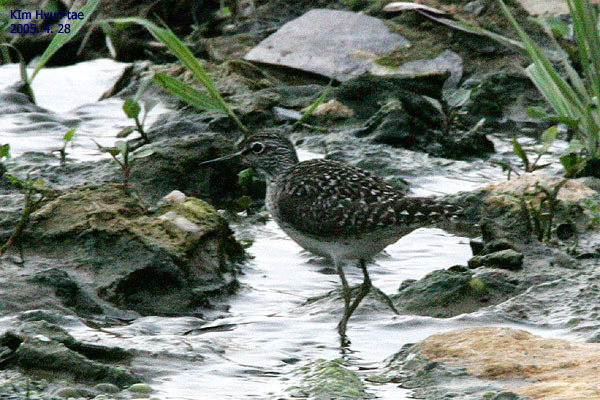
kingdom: Animalia
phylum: Chordata
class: Aves
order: Charadriiformes
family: Scolopacidae
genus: Tringa
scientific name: Tringa glareola
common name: Wood sandpiper
